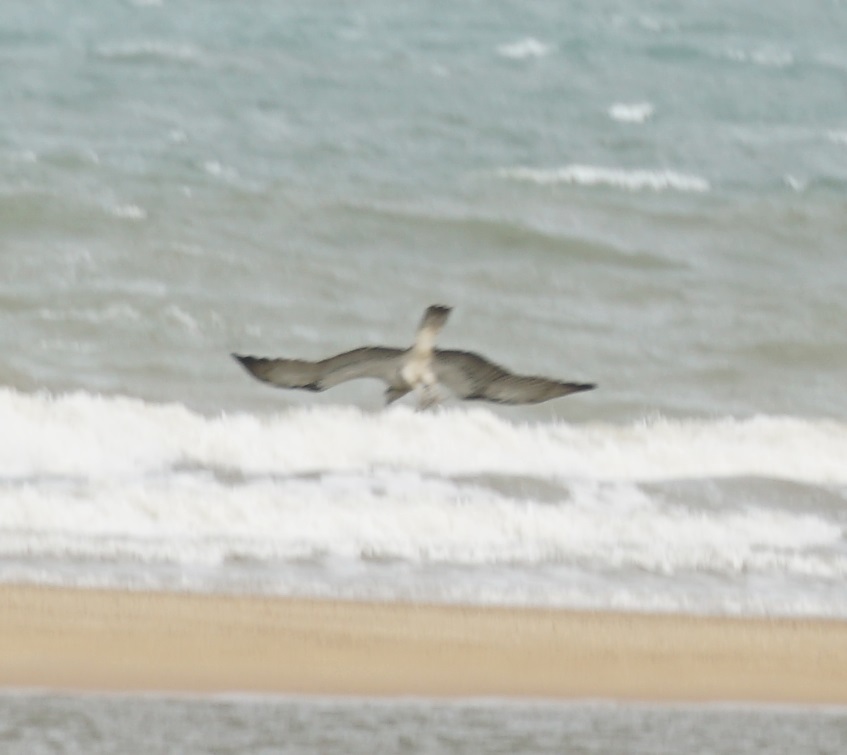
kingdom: Animalia
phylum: Chordata
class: Aves
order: Accipitriformes
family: Pandionidae
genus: Pandion
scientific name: Pandion cristatus
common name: Eastern osprey
